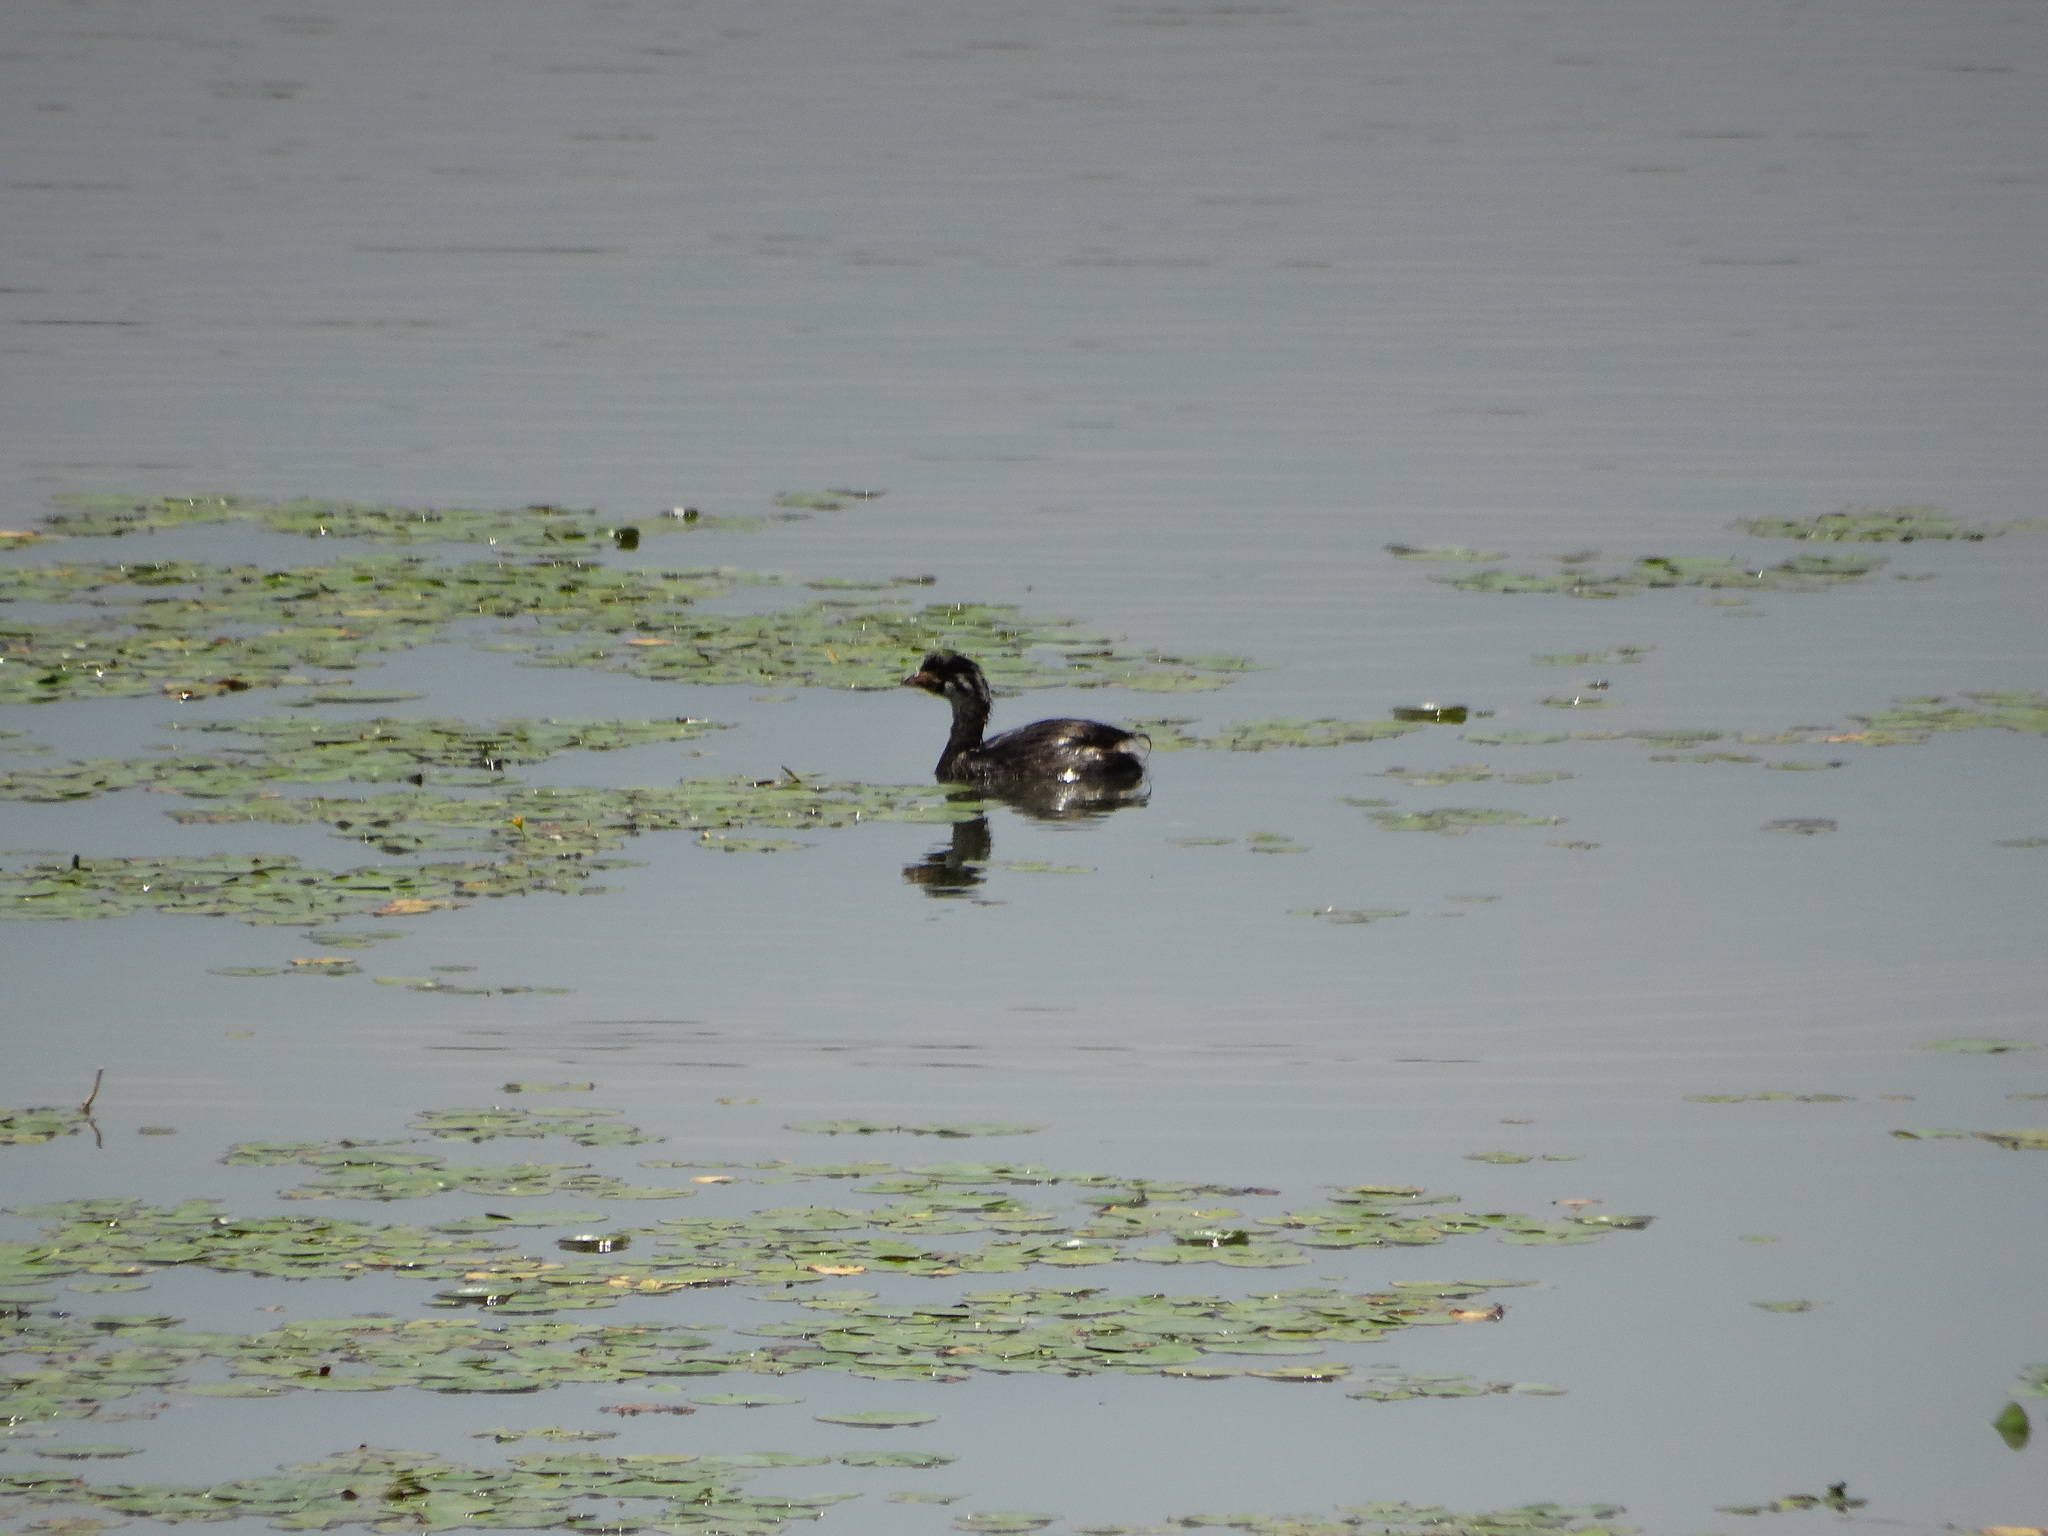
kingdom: Animalia
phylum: Chordata
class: Aves
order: Podicipediformes
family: Podicipedidae
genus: Podilymbus
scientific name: Podilymbus podiceps
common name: Pied-billed grebe
